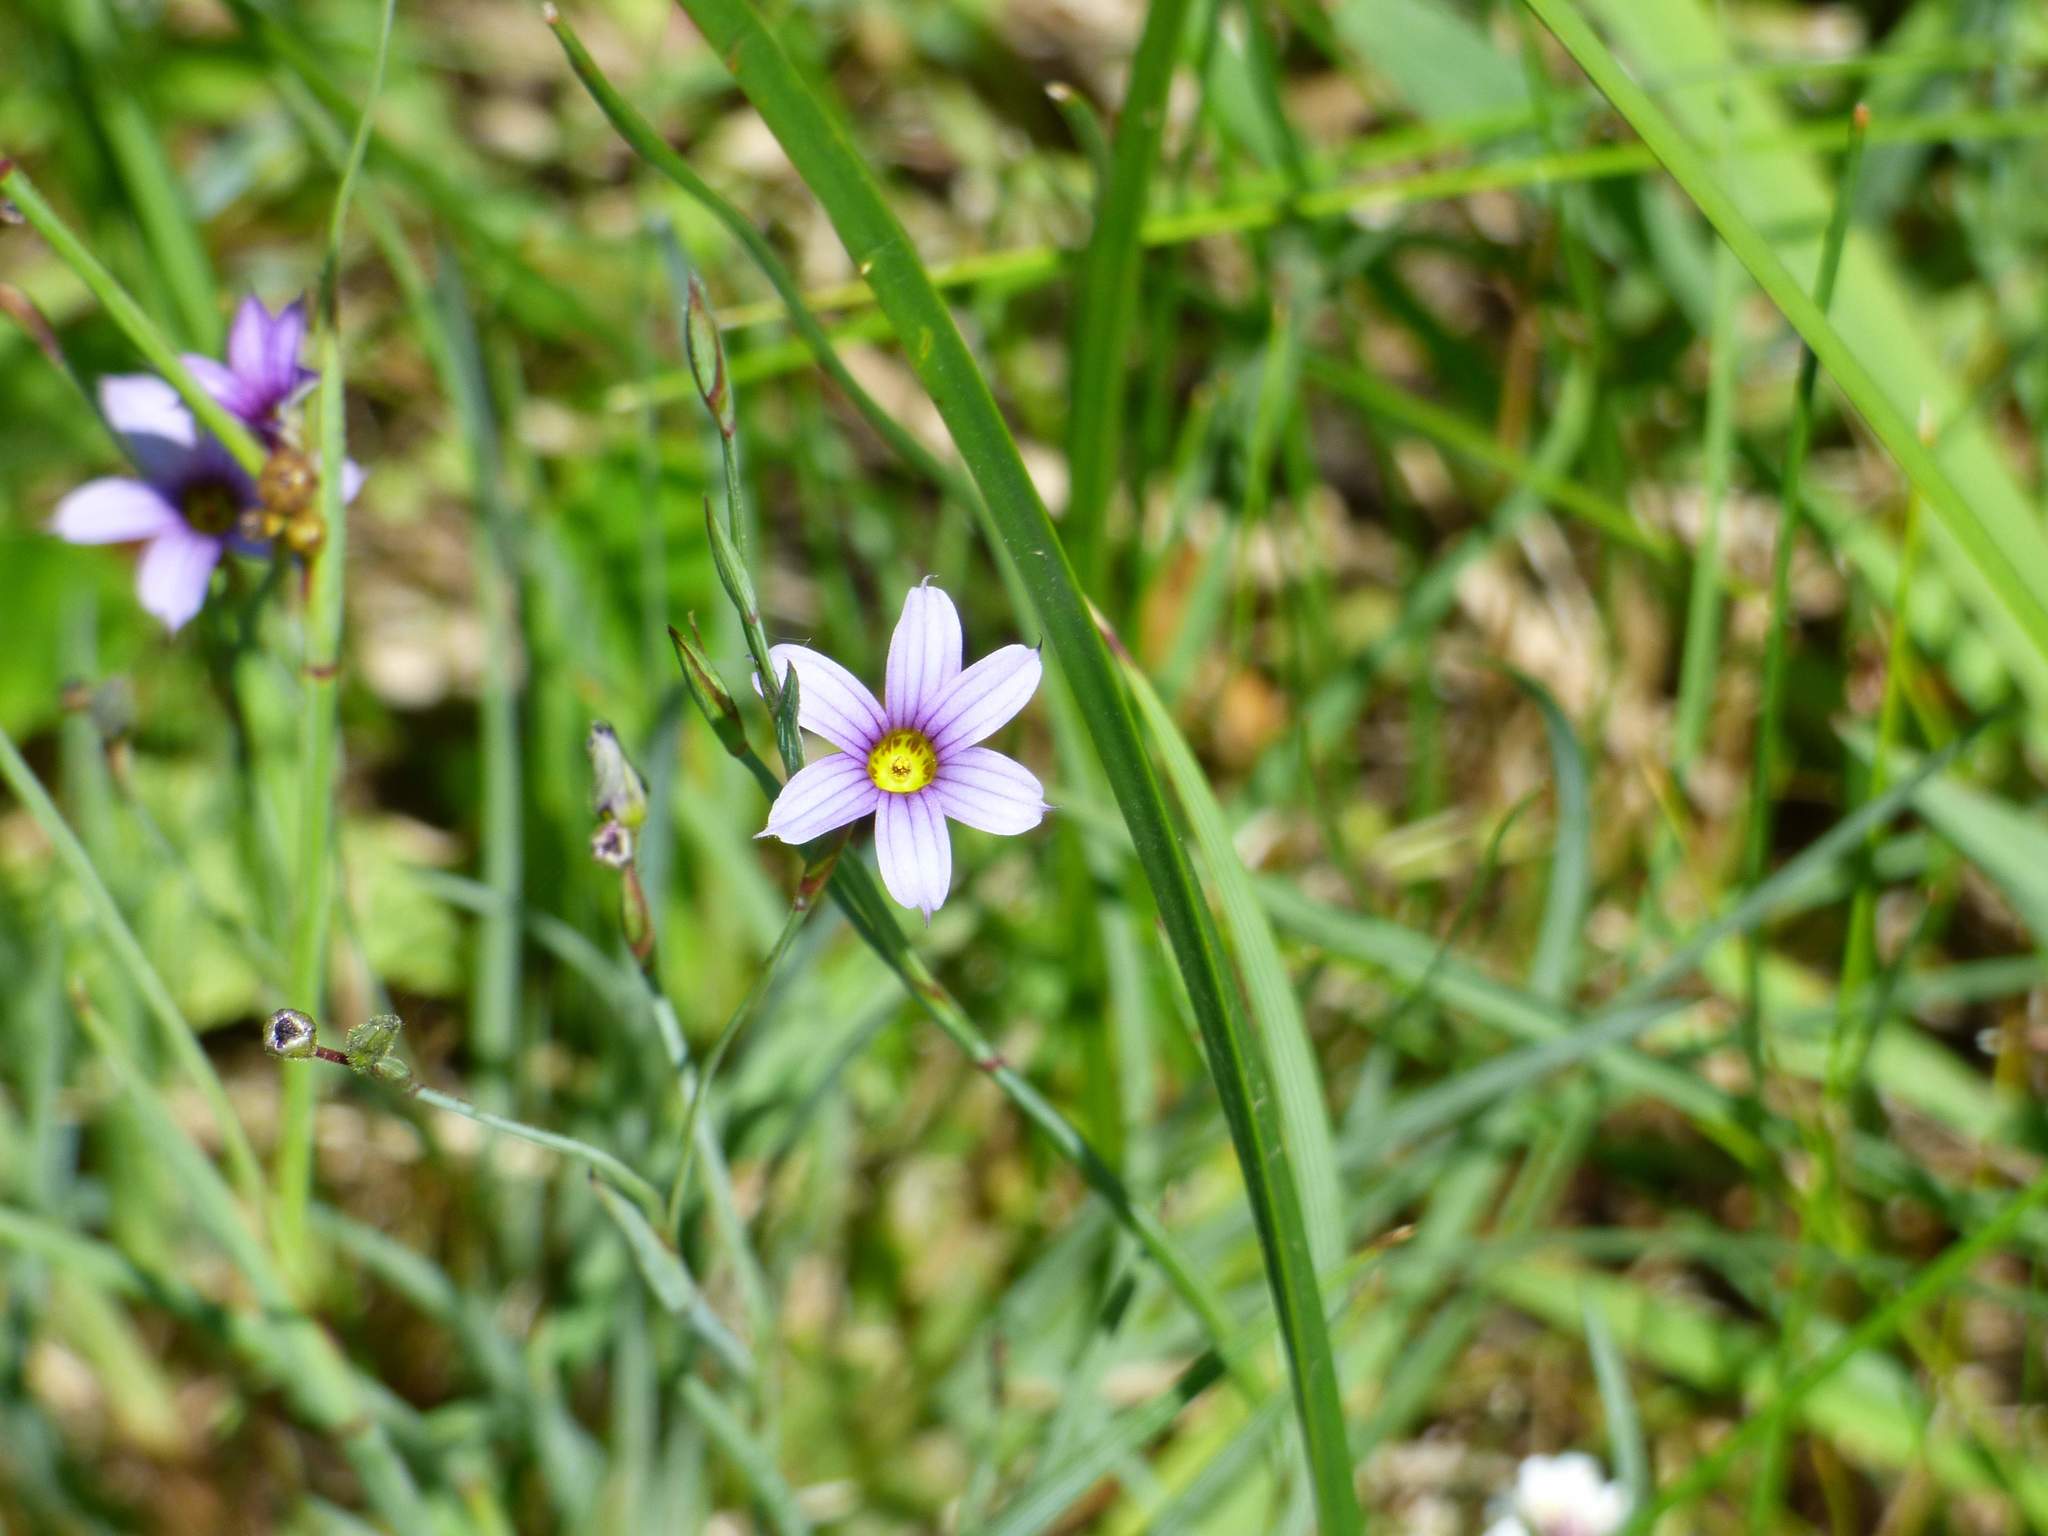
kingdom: Plantae
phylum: Tracheophyta
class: Liliopsida
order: Asparagales
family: Iridaceae
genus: Sisyrinchium
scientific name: Sisyrinchium micranthum
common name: Bermuda pigroot
